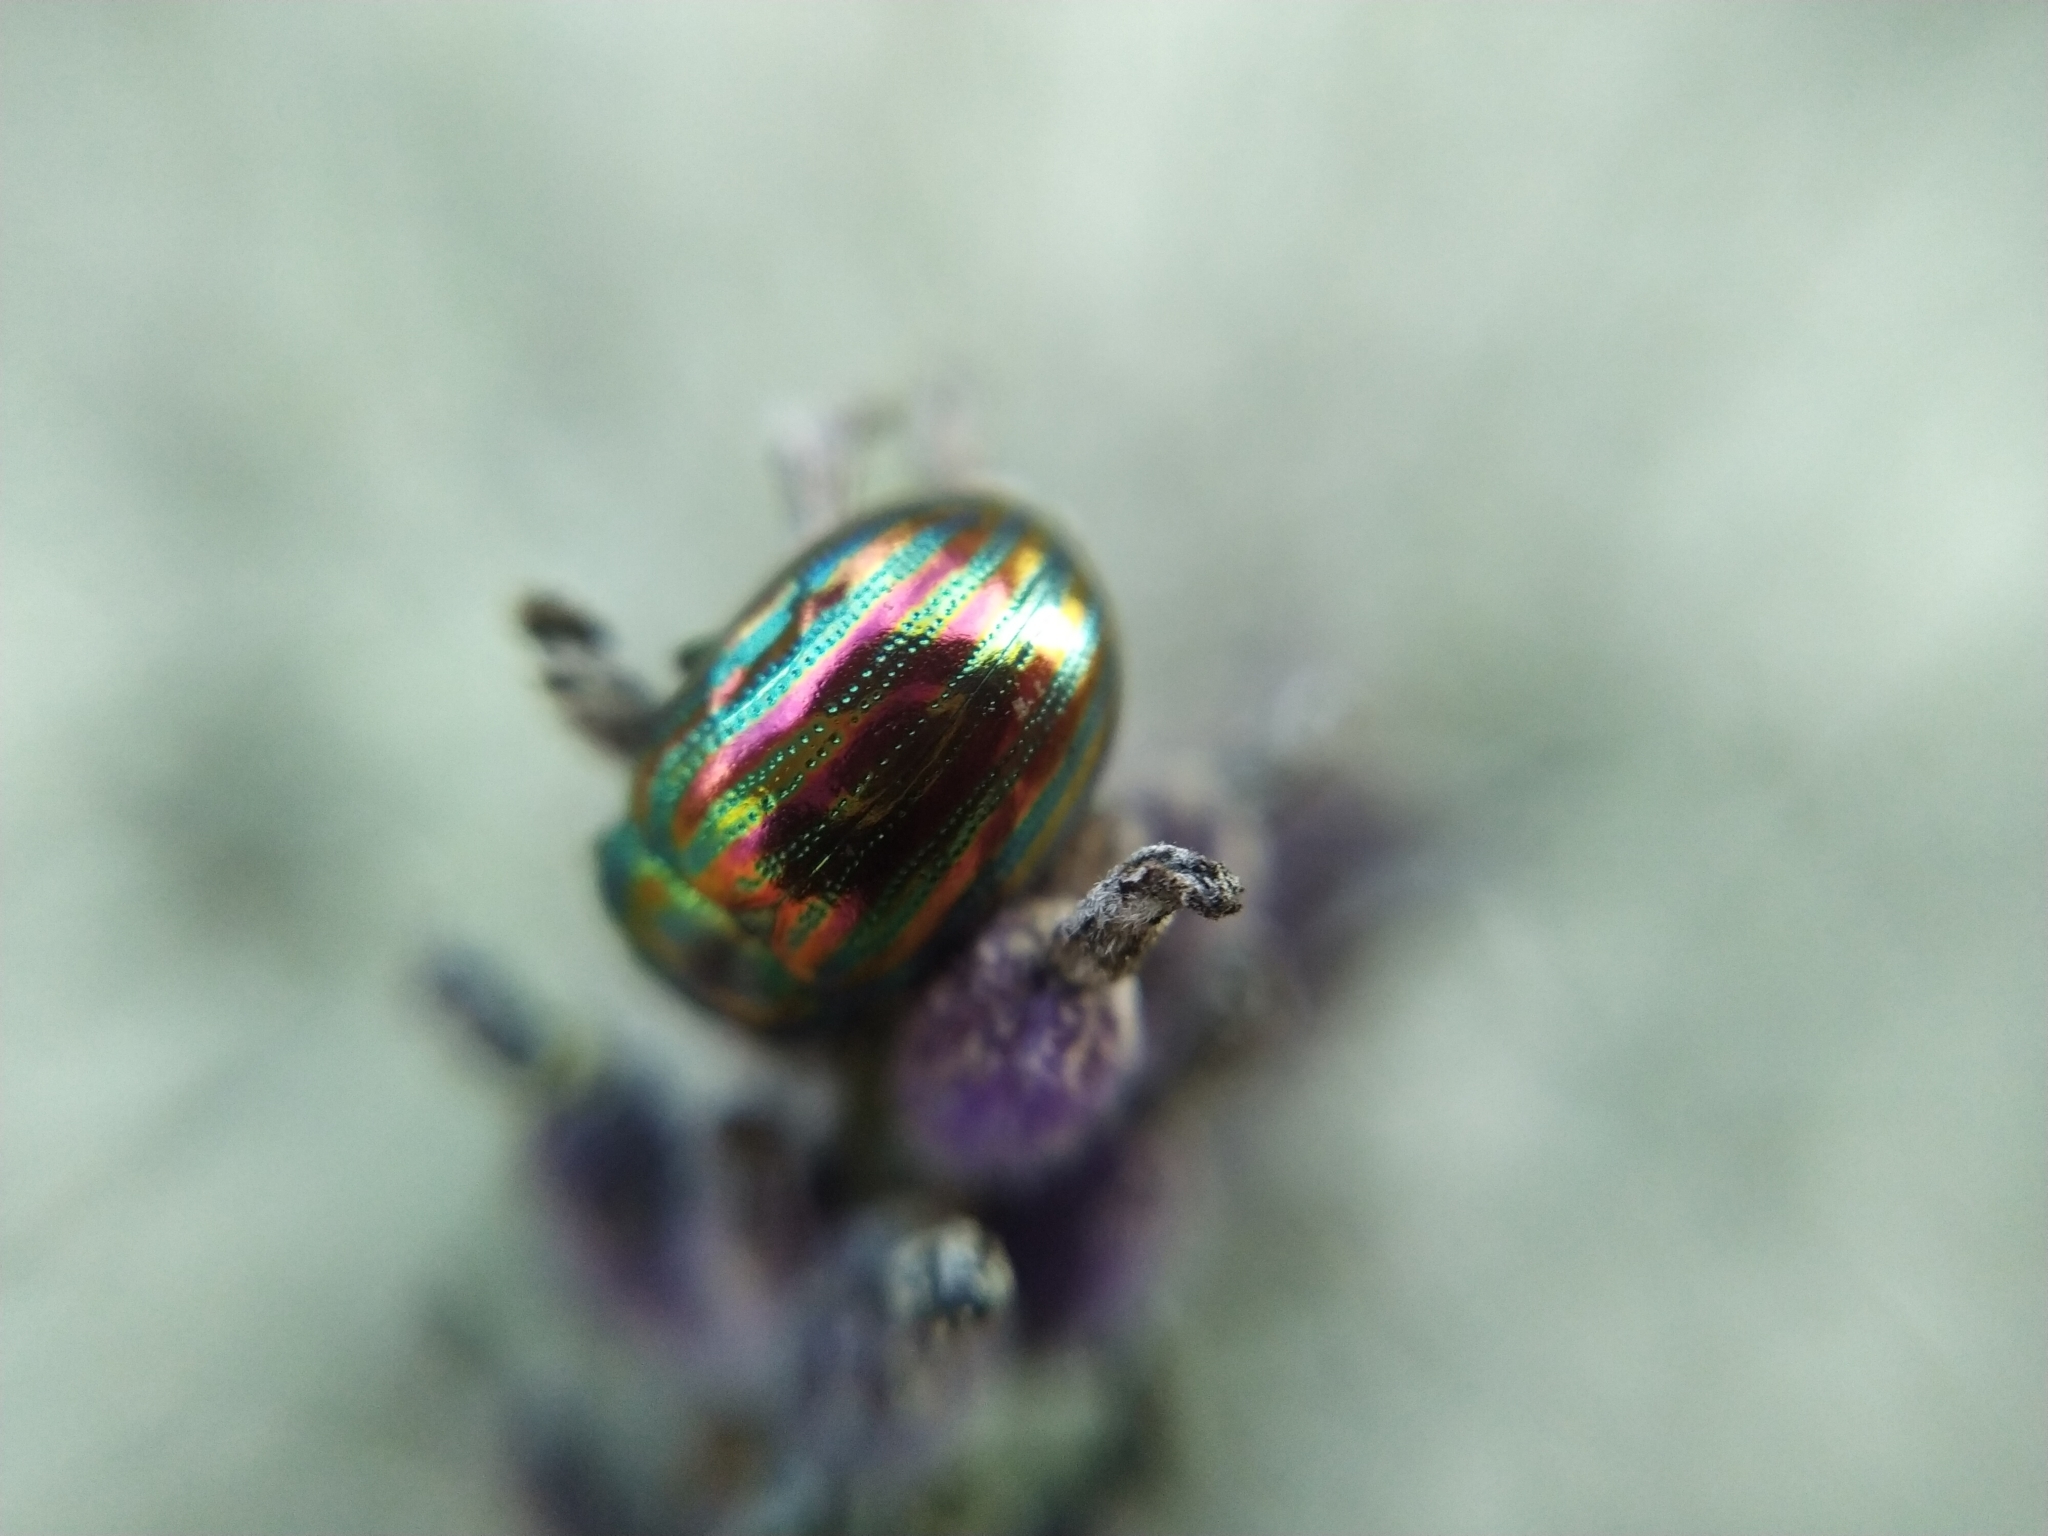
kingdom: Animalia
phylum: Arthropoda
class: Insecta
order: Coleoptera
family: Chrysomelidae
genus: Chrysolina
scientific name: Chrysolina americana
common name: Rosemary beetle
